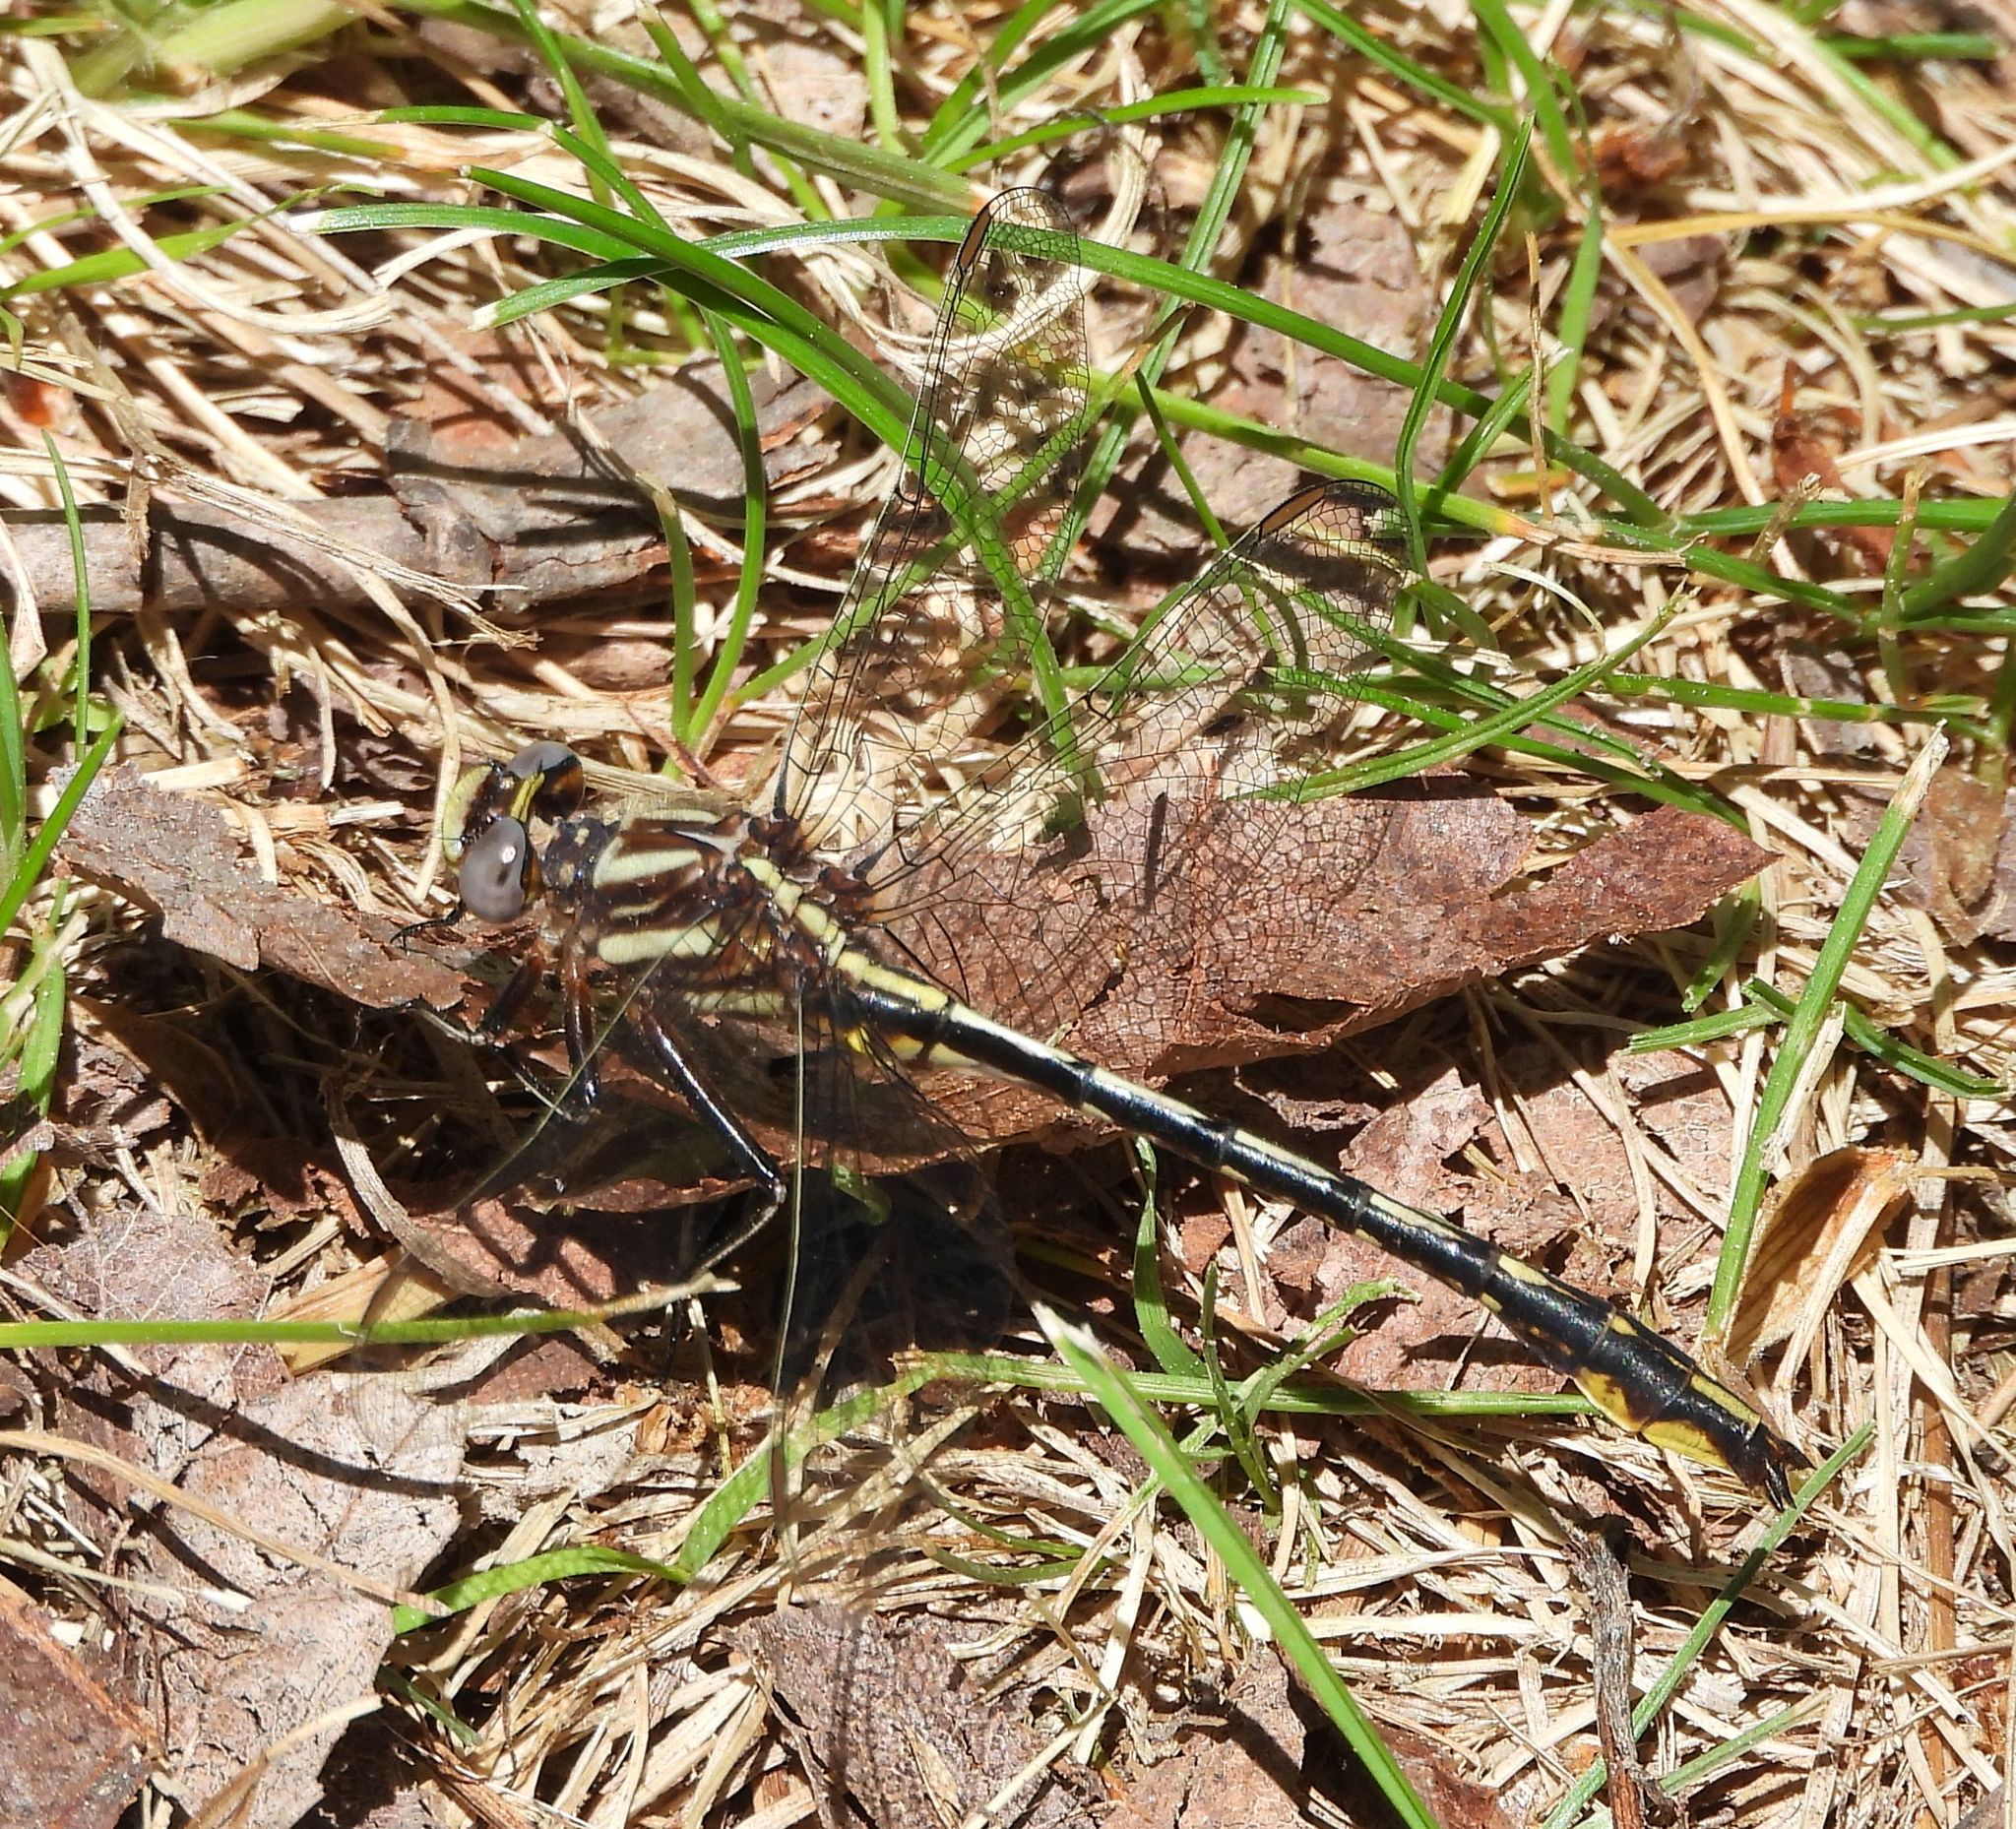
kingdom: Animalia
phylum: Arthropoda
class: Insecta
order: Odonata
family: Gomphidae
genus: Phanogomphus
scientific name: Phanogomphus exilis
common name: Lancet clubtail
